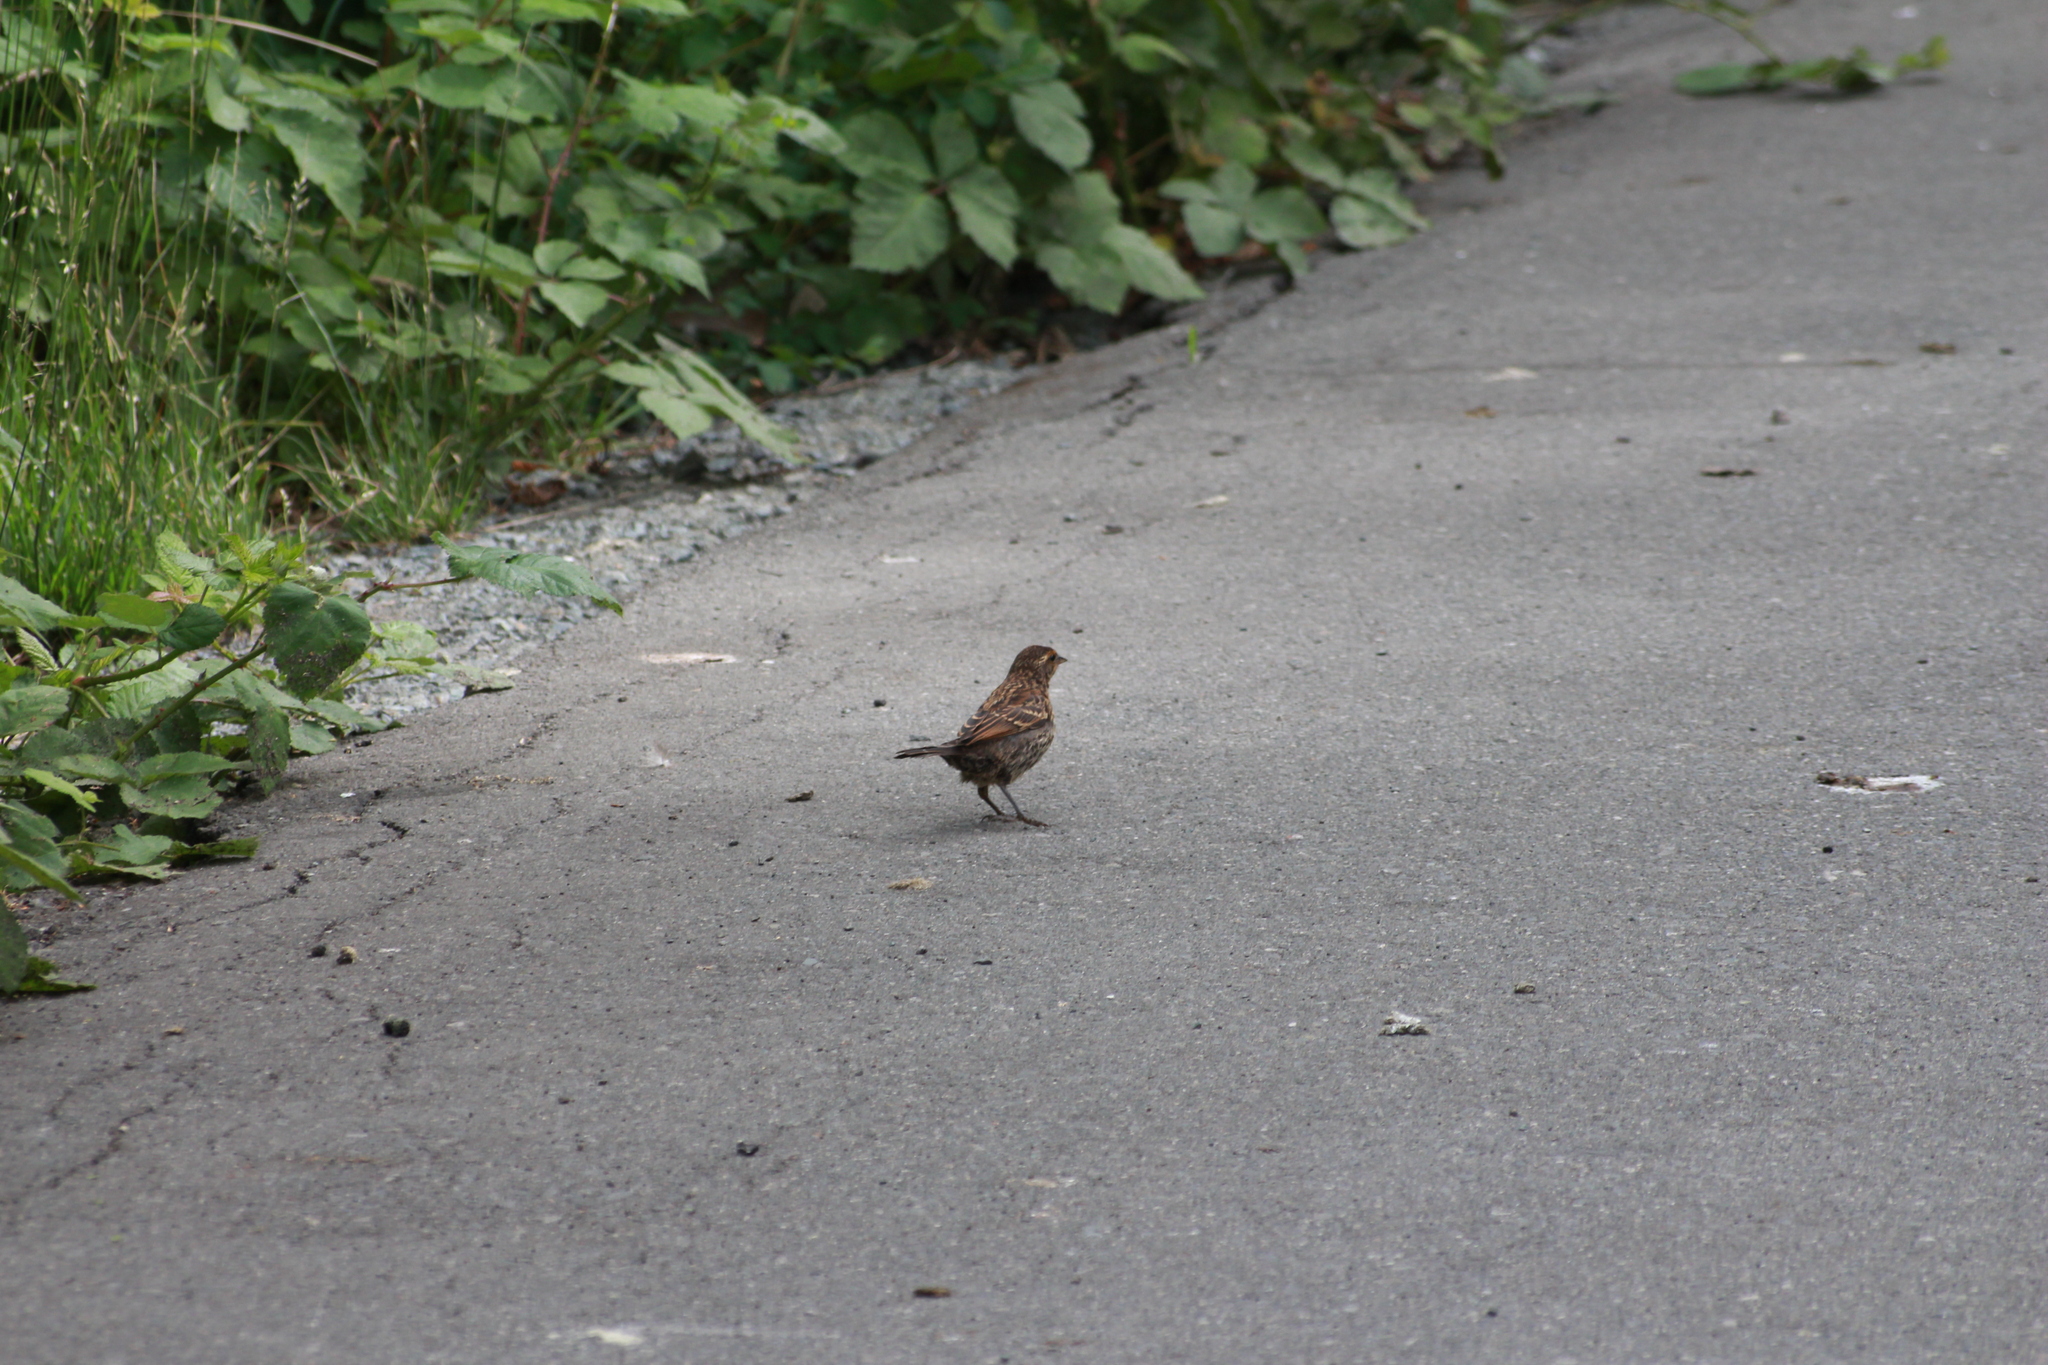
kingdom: Animalia
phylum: Chordata
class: Aves
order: Passeriformes
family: Icteridae
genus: Agelaius
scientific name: Agelaius phoeniceus
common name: Red-winged blackbird
